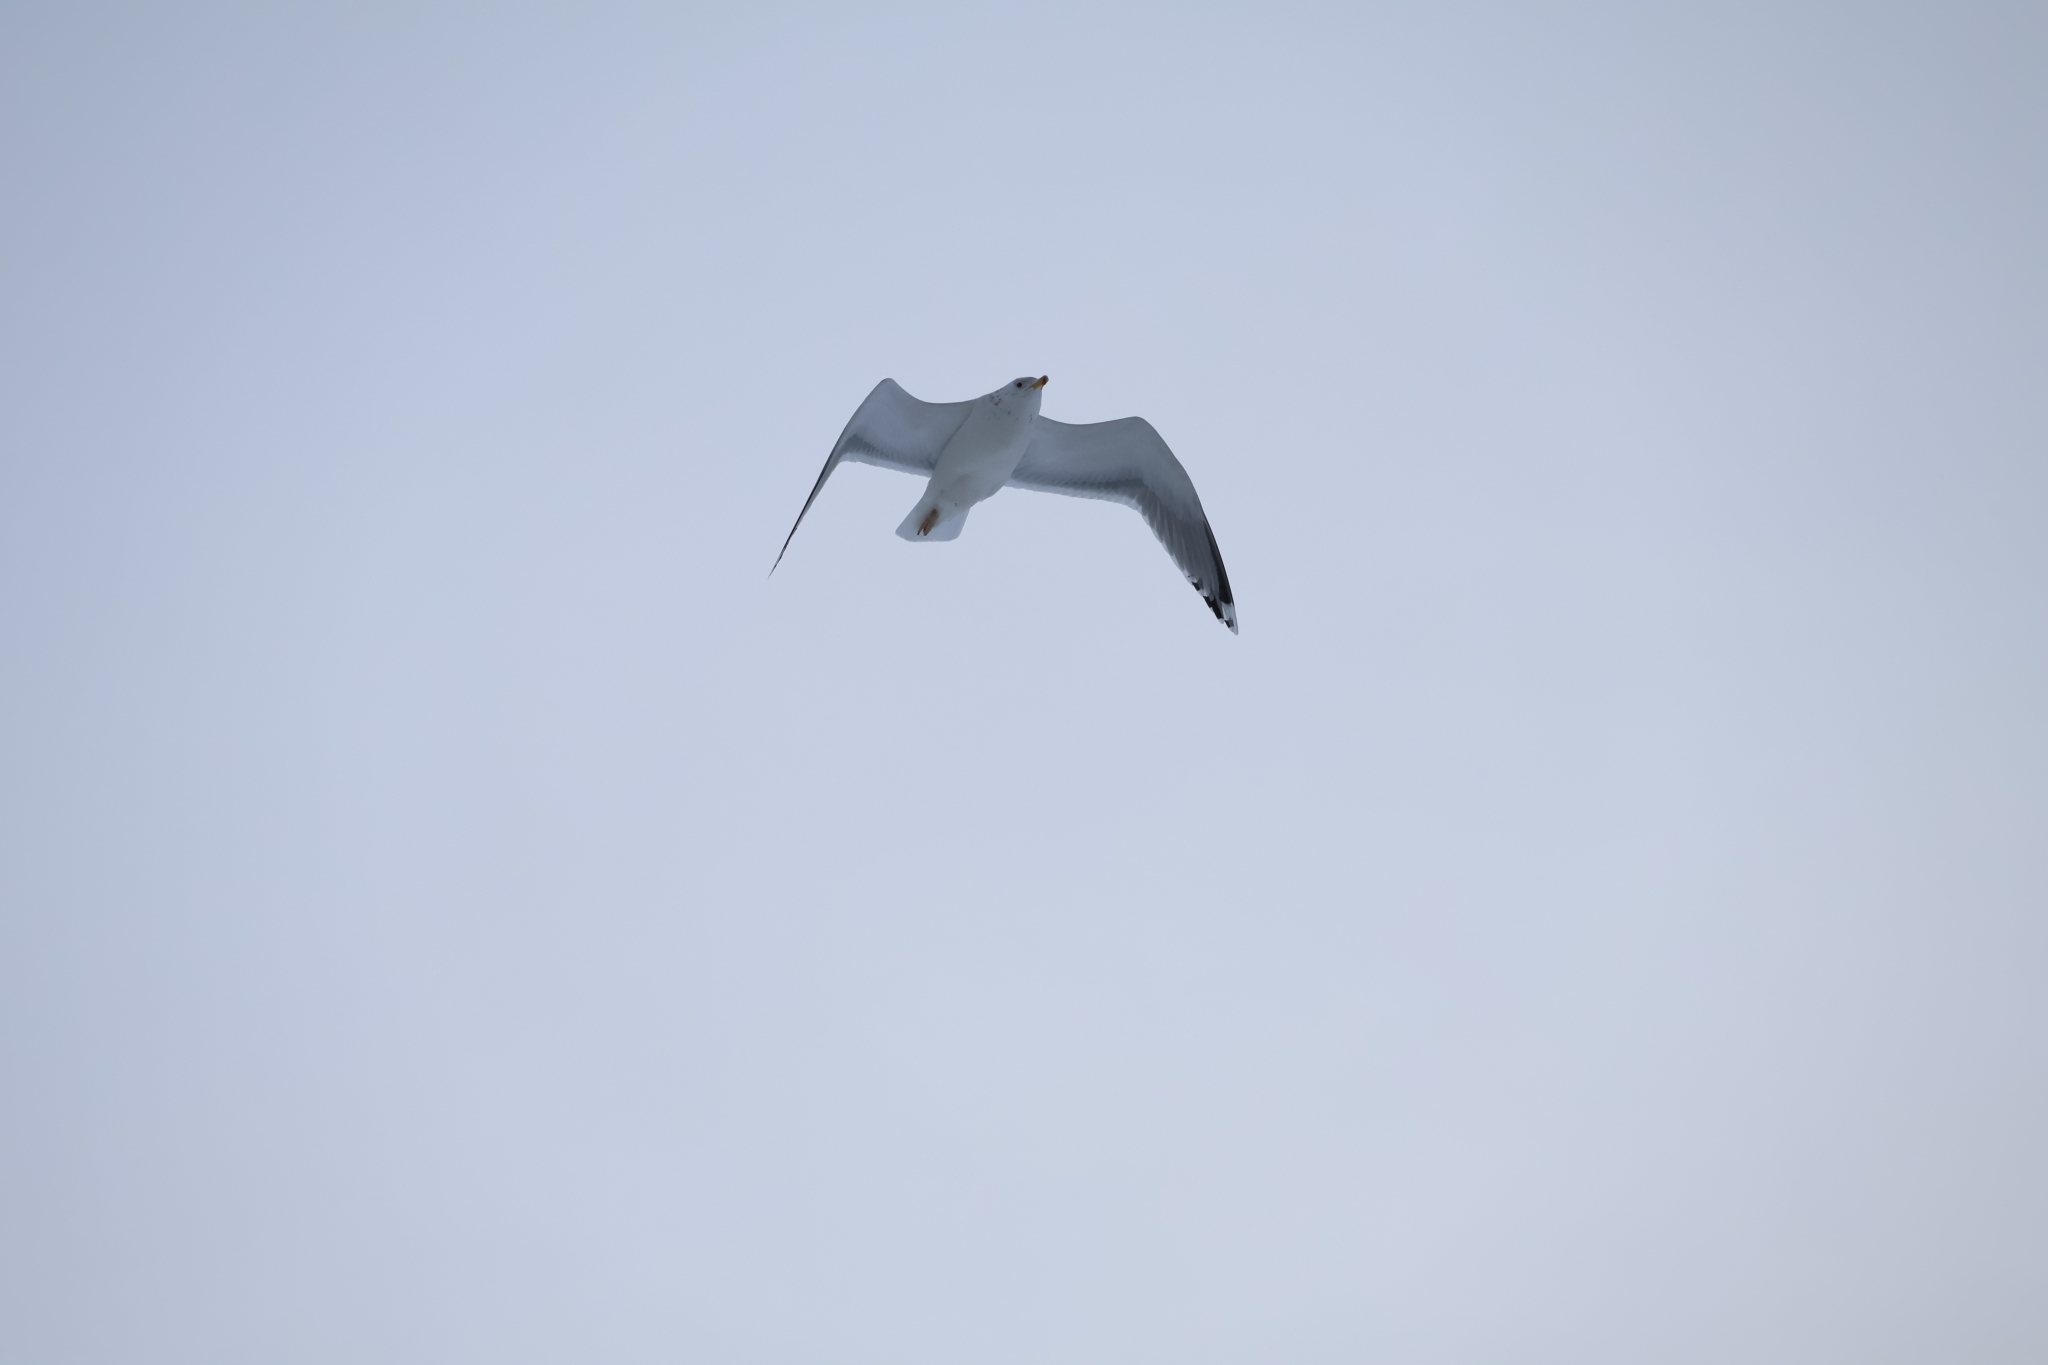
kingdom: Animalia
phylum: Chordata
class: Aves
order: Charadriiformes
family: Laridae
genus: Larus
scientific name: Larus argentatus
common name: Herring gull
